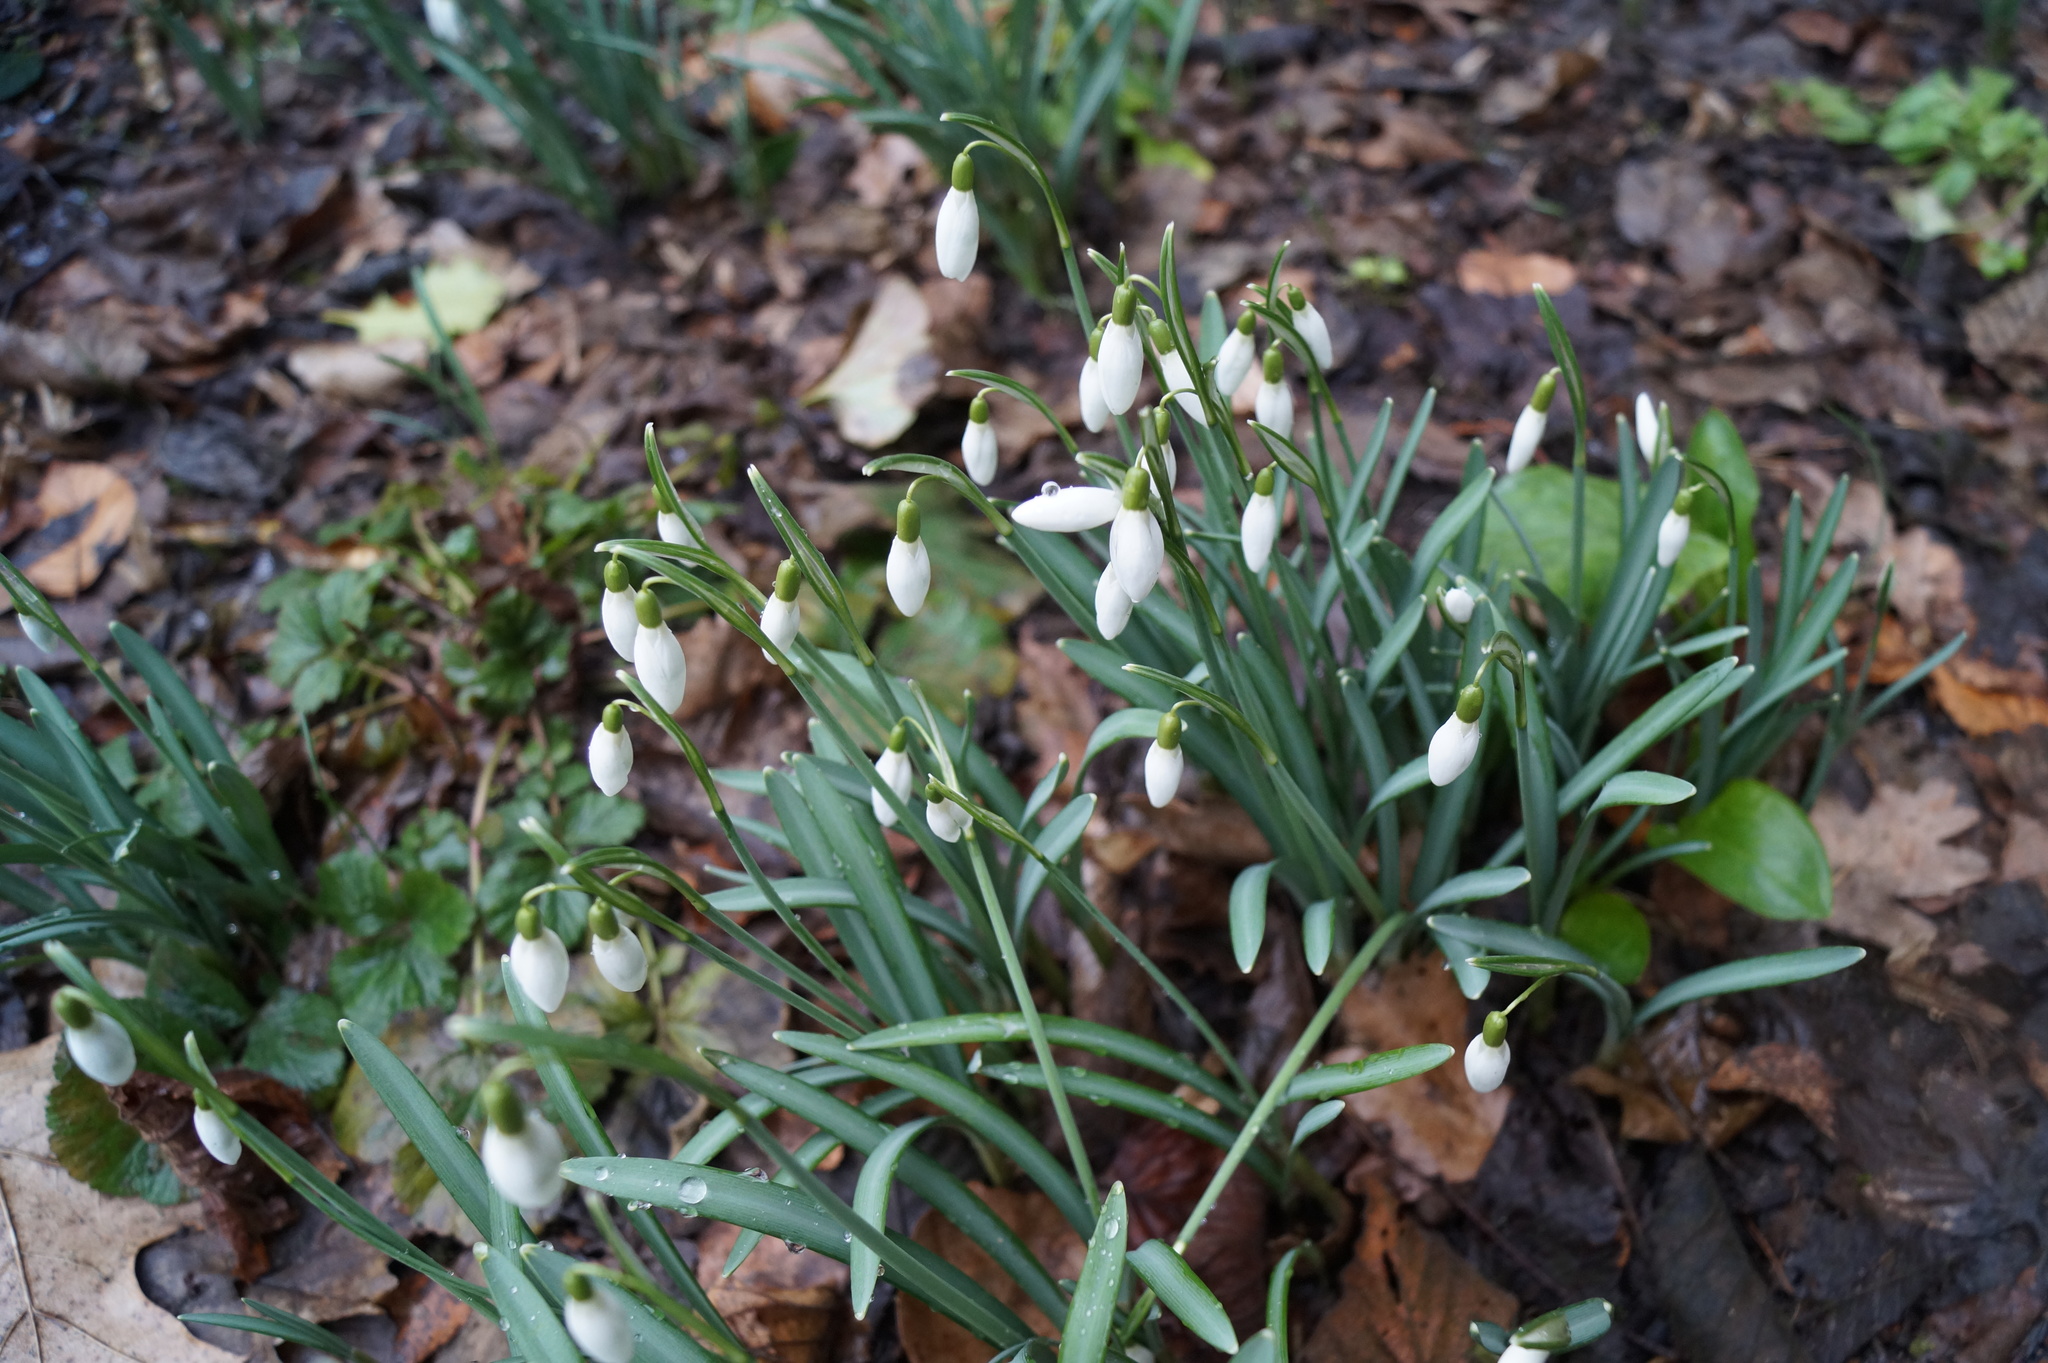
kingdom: Plantae
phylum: Tracheophyta
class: Liliopsida
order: Asparagales
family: Amaryllidaceae
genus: Galanthus
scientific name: Galanthus nivalis
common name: Snowdrop
